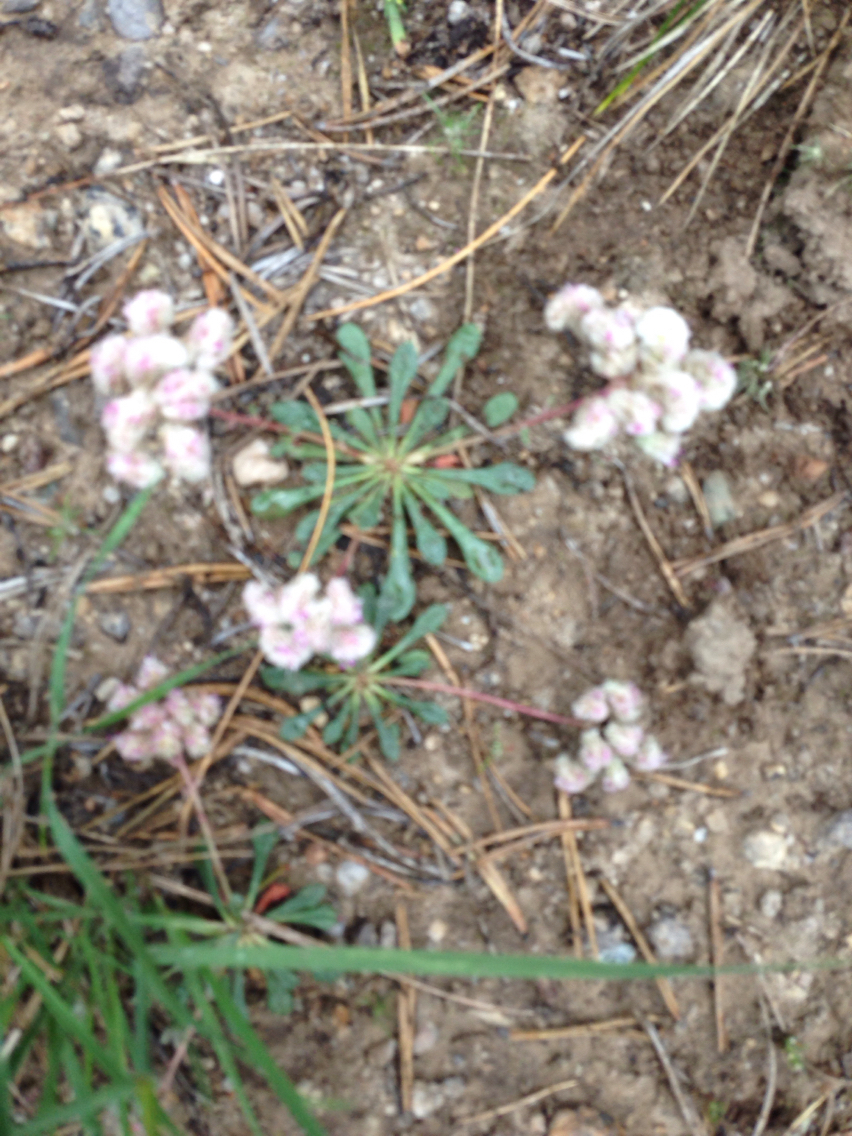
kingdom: Plantae
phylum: Tracheophyta
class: Magnoliopsida
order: Caryophyllales
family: Montiaceae
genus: Calyptridium
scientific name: Calyptridium monospermum
